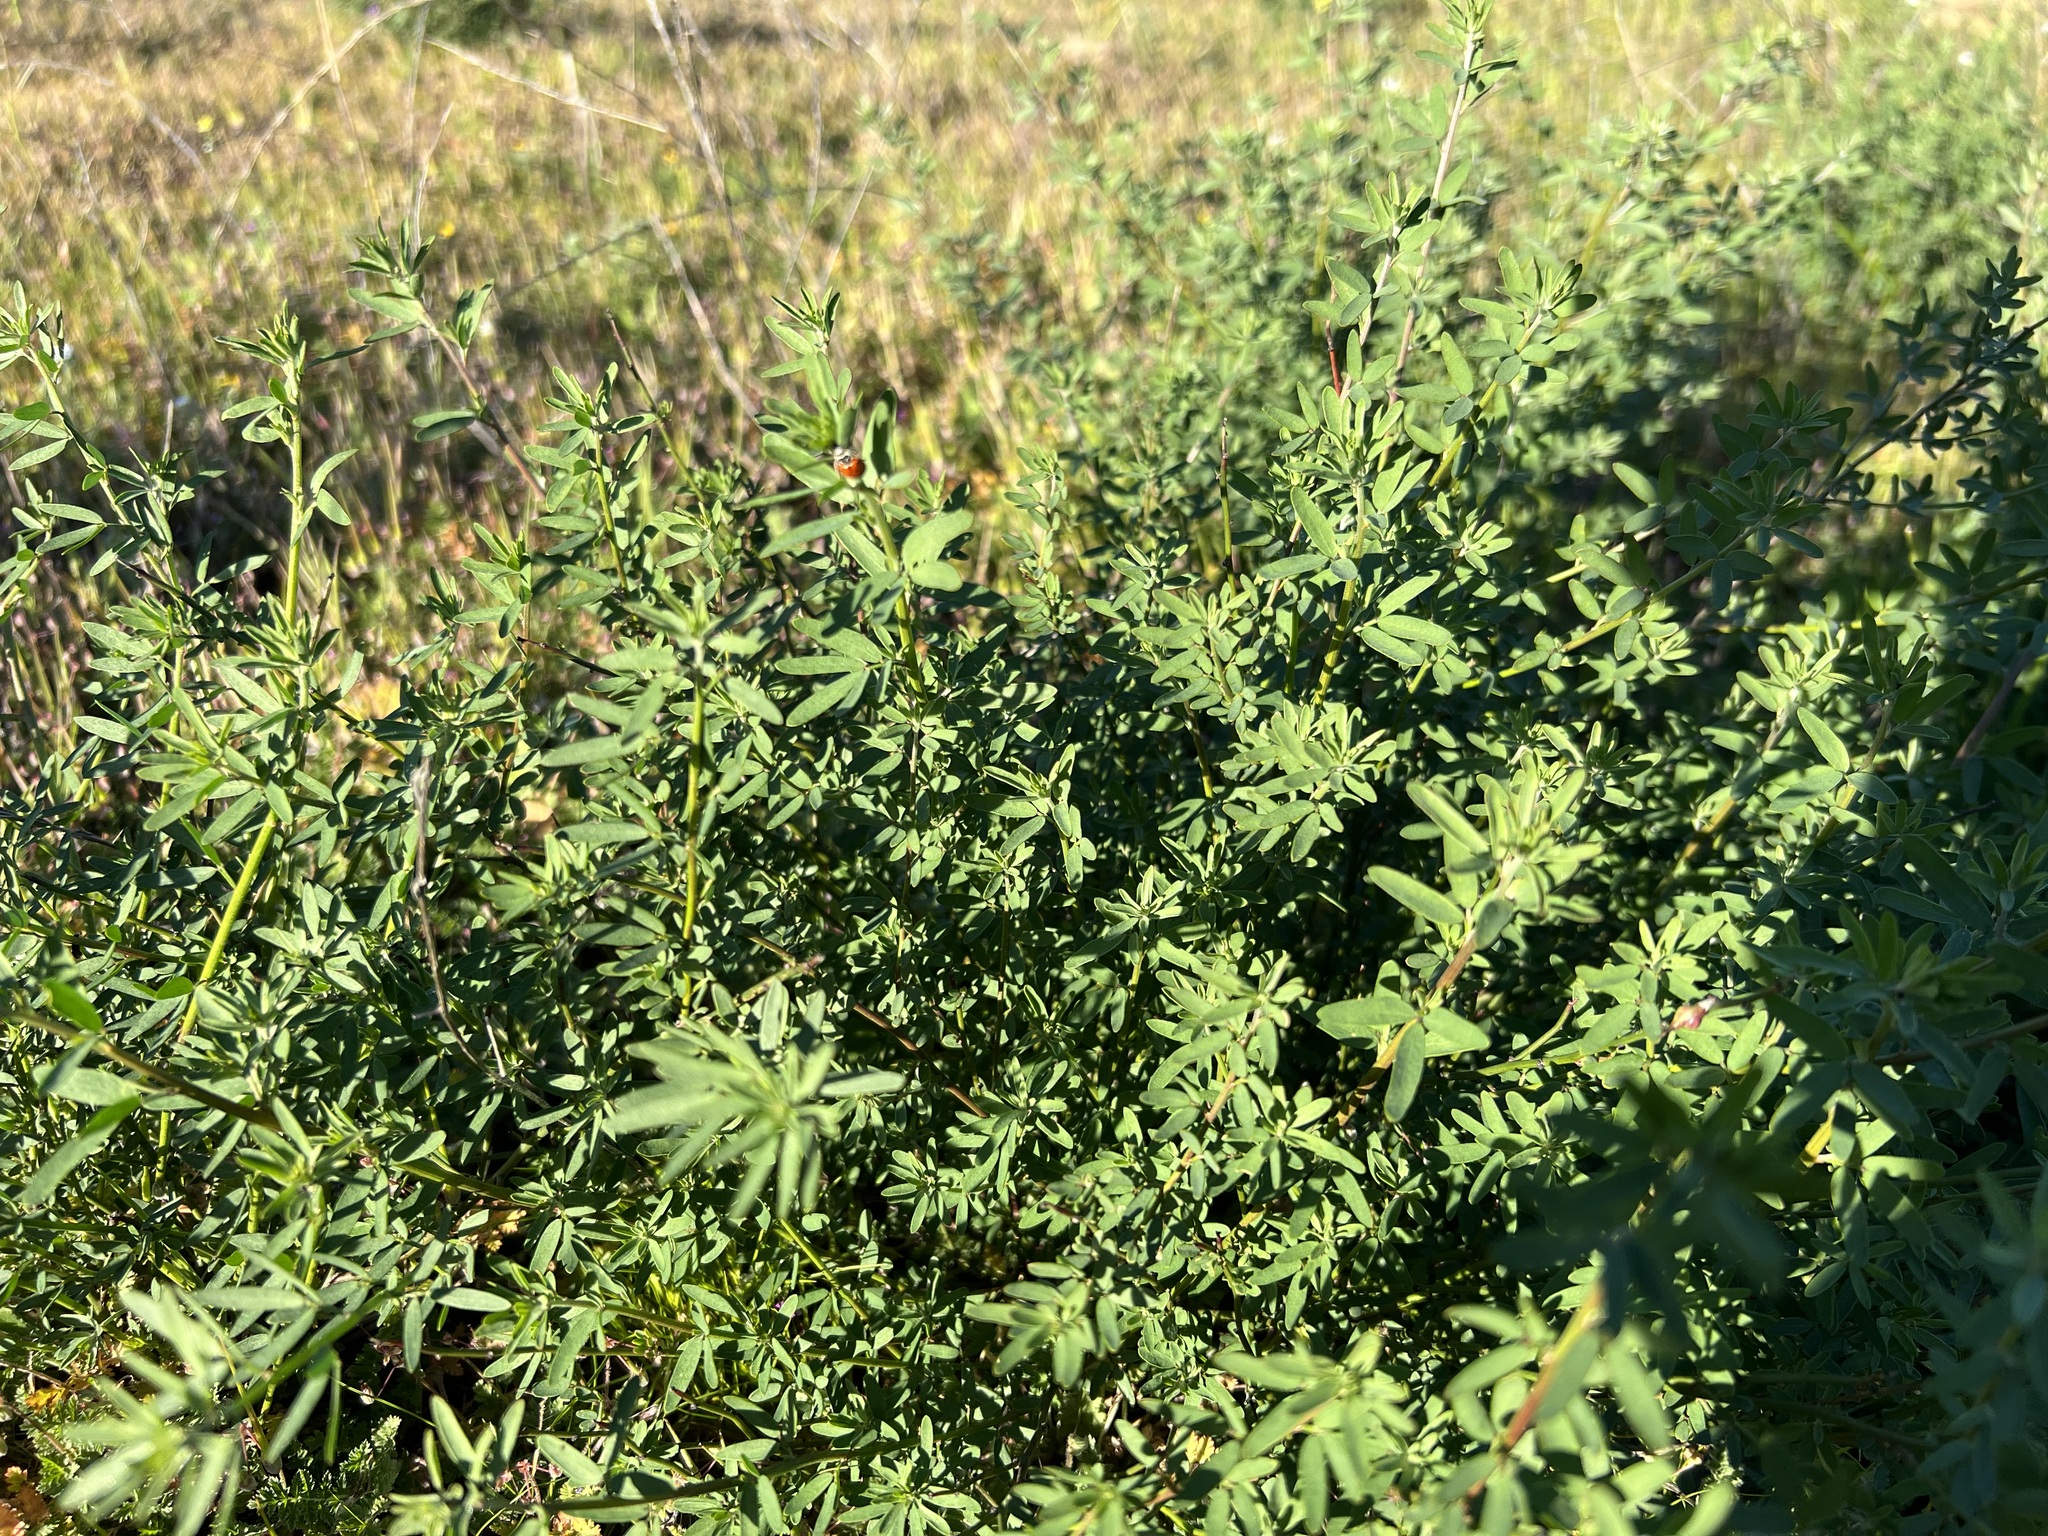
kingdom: Plantae
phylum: Tracheophyta
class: Magnoliopsida
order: Fabales
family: Fabaceae
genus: Acmispon
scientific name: Acmispon glaber
